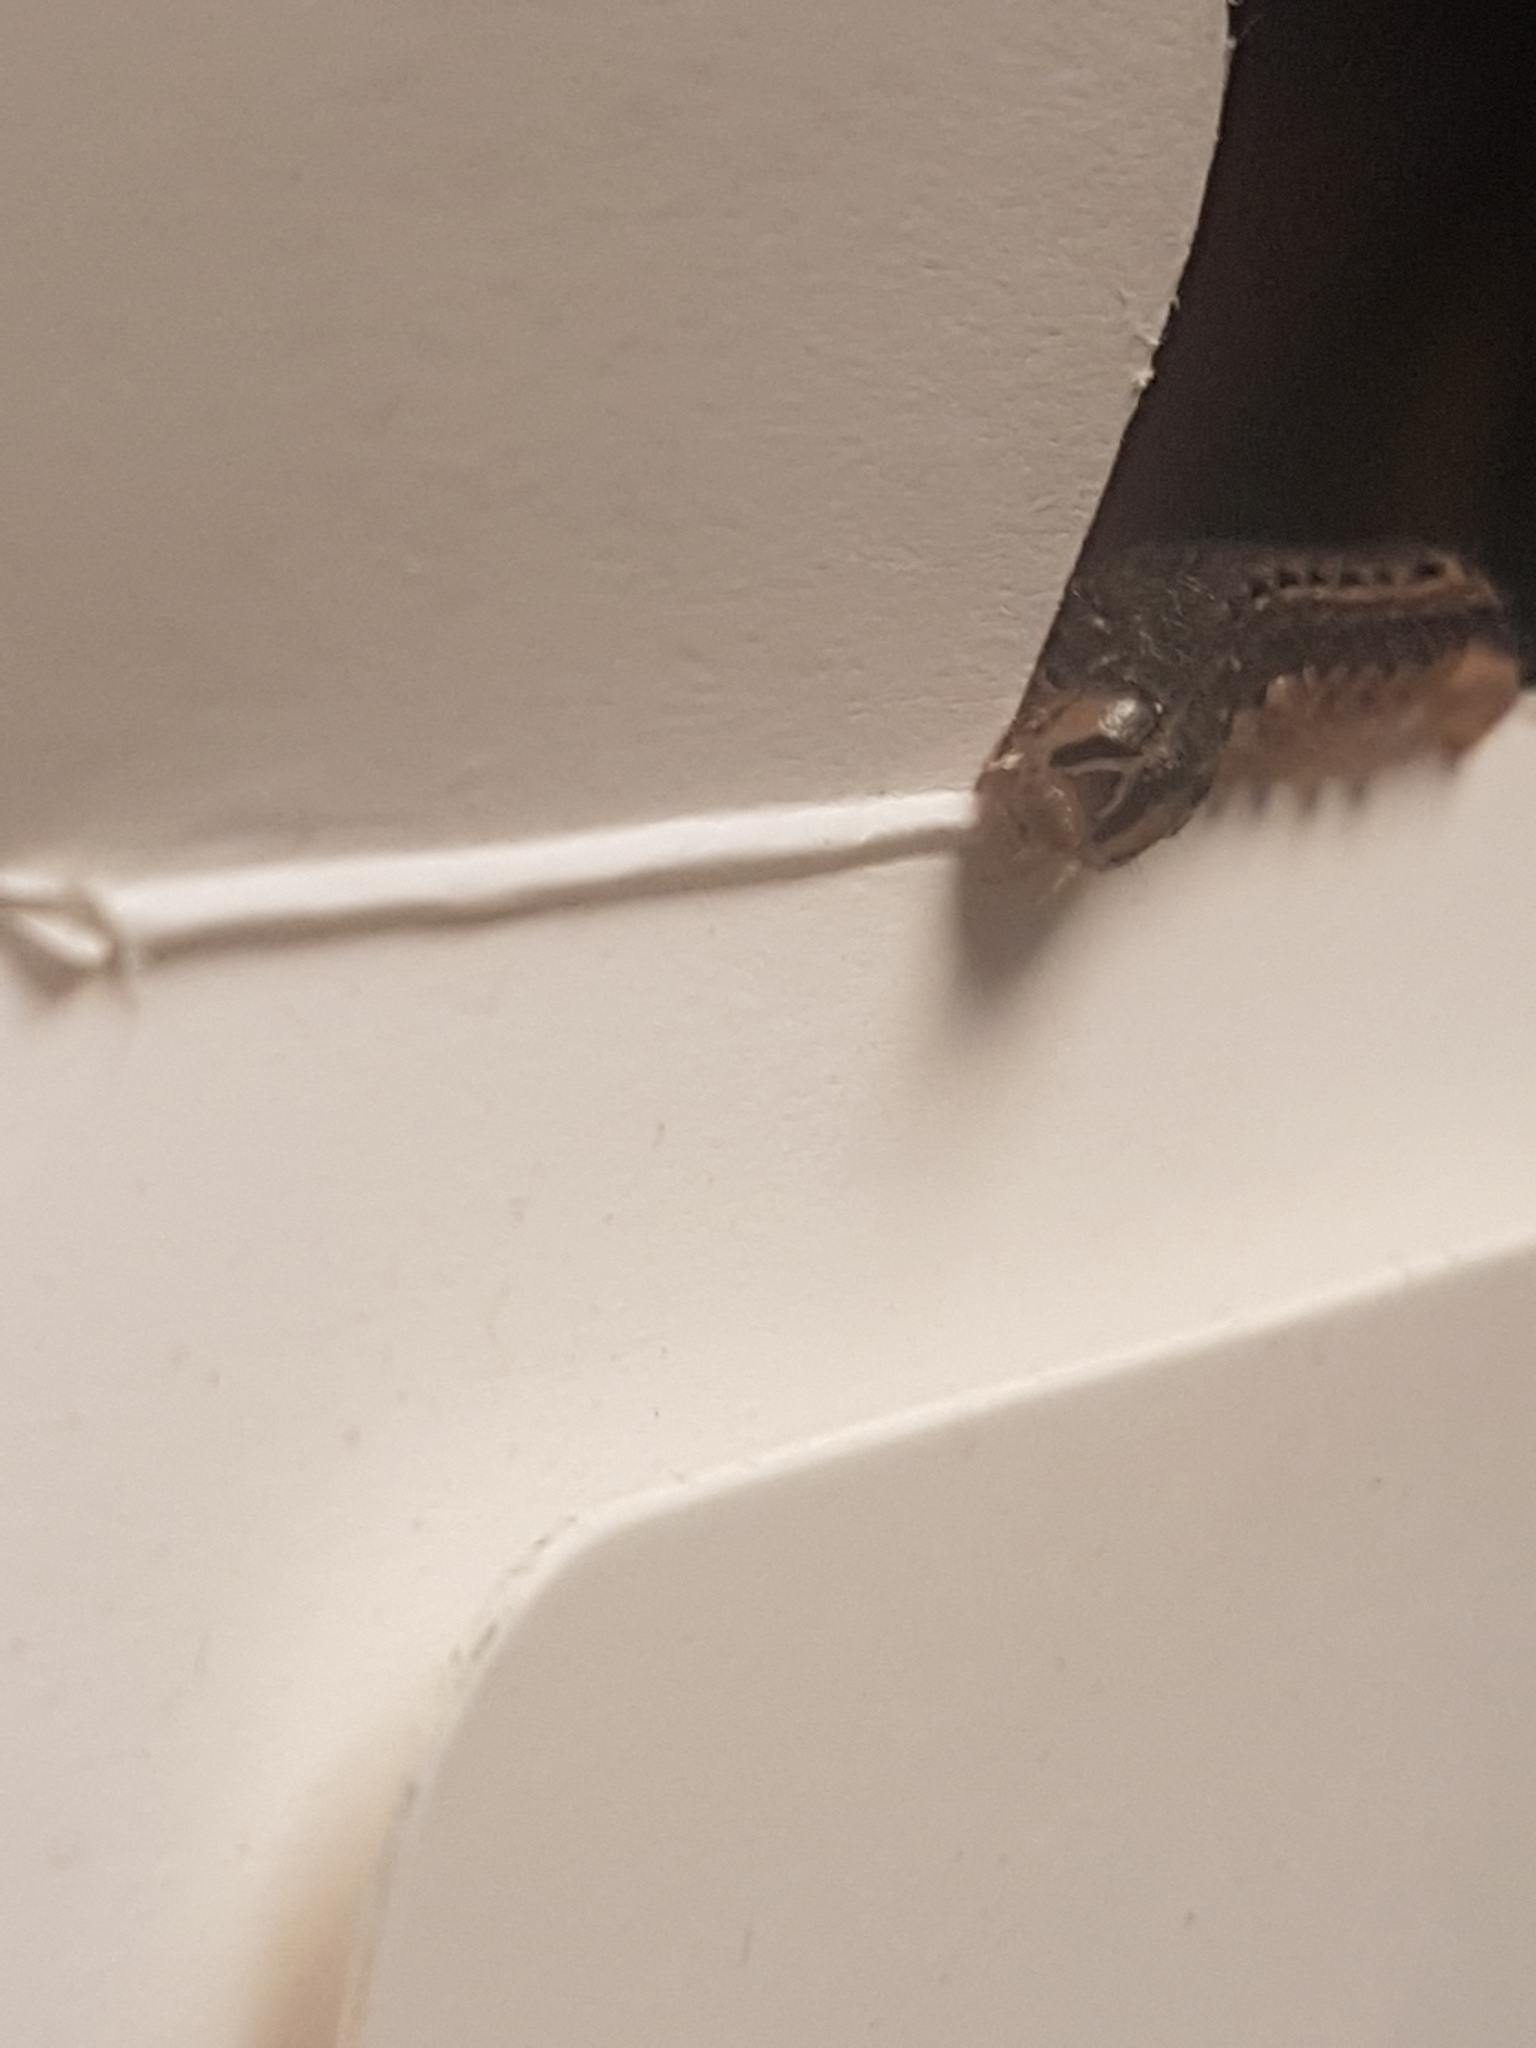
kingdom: Animalia
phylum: Arthropoda
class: Insecta
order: Lepidoptera
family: Noctuidae
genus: Noctua
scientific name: Noctua pronuba
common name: Large yellow underwing
